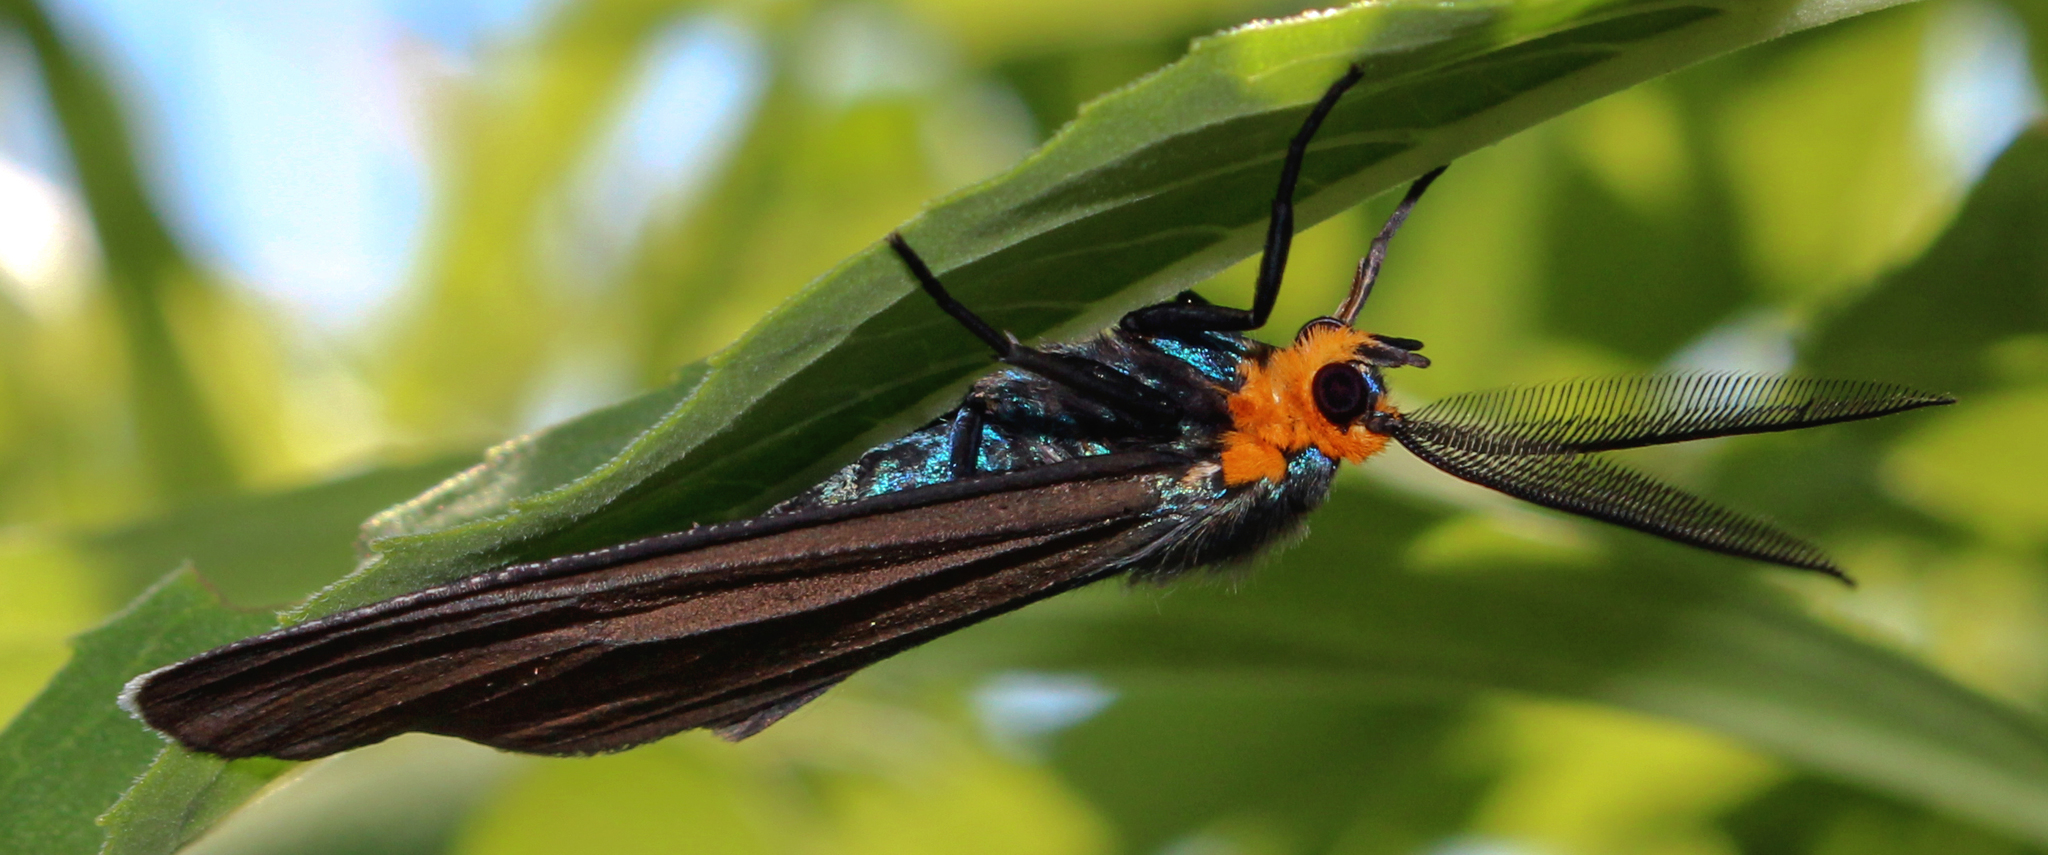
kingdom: Animalia
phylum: Arthropoda
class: Insecta
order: Lepidoptera
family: Erebidae
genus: Ctenucha
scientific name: Ctenucha virginica
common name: Virginia ctenucha moth
